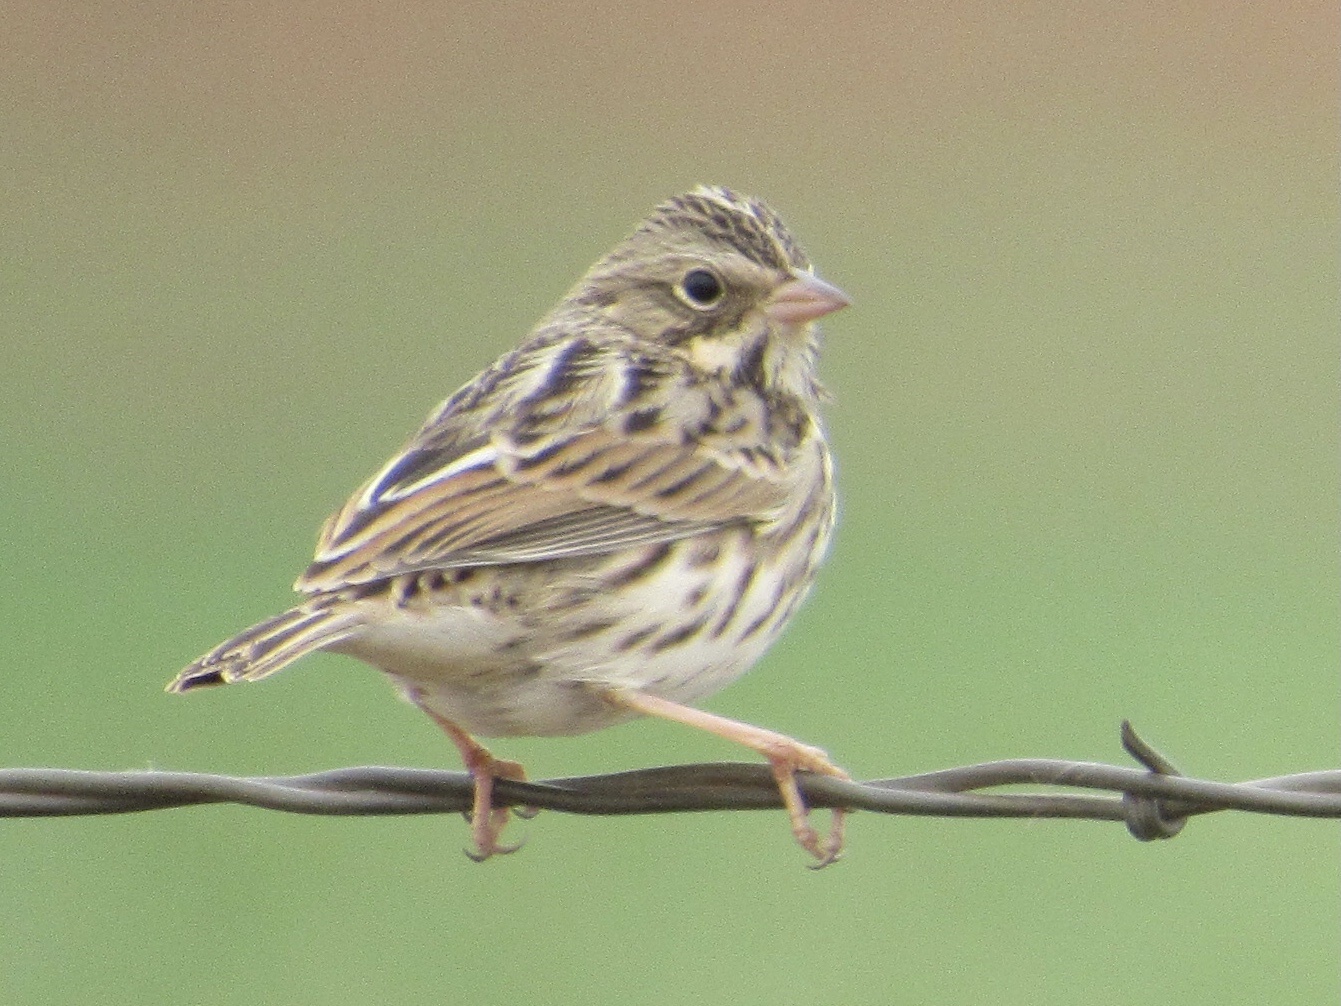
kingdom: Animalia
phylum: Chordata
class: Aves
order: Passeriformes
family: Passerellidae
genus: Passerculus
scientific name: Passerculus sandwichensis
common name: Savannah sparrow
